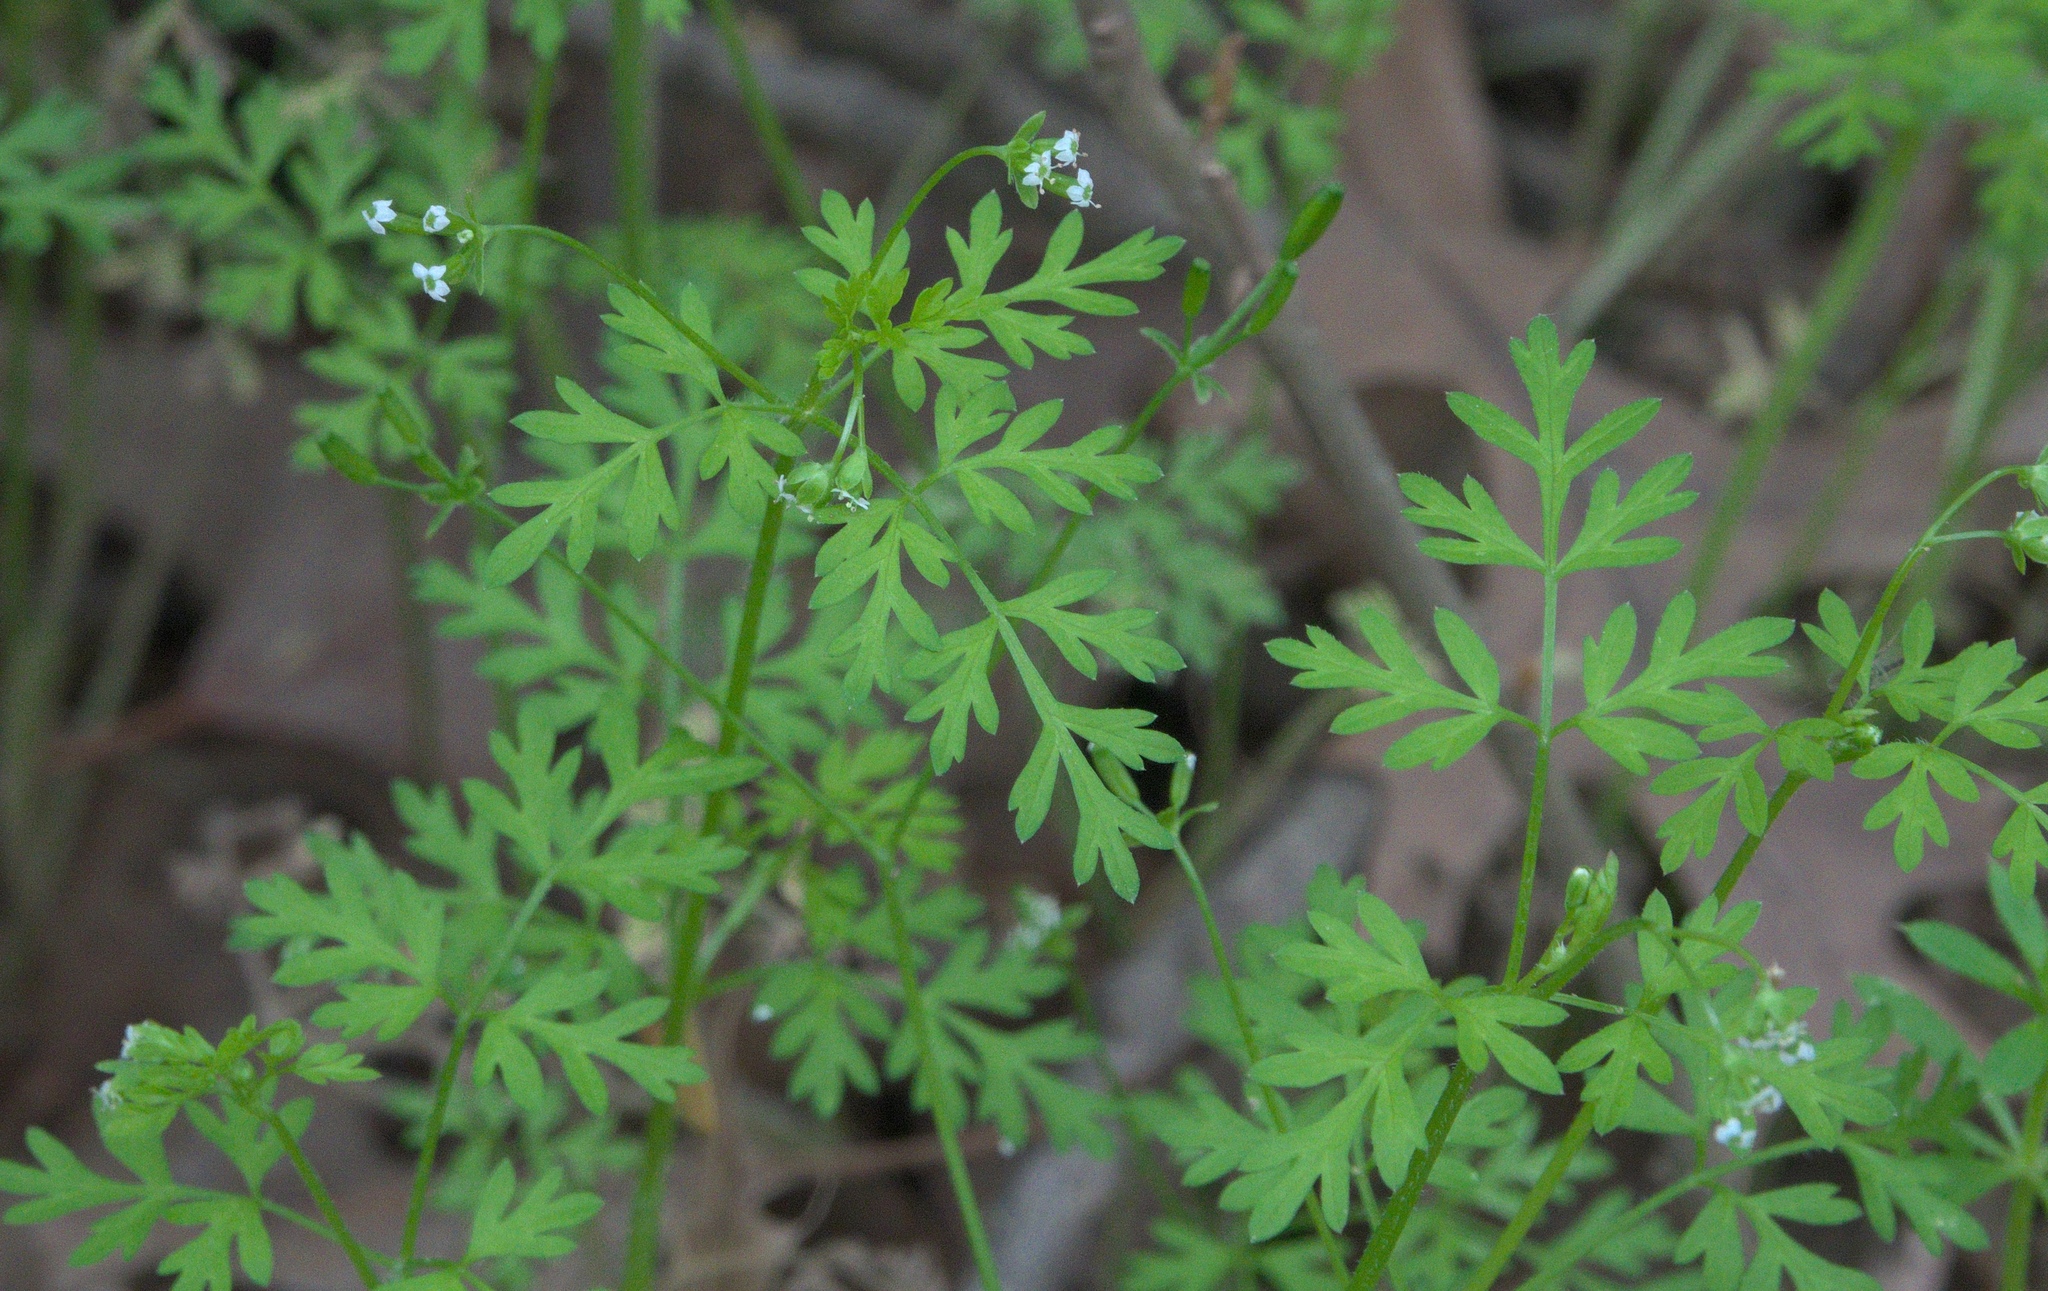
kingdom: Plantae
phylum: Tracheophyta
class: Magnoliopsida
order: Apiales
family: Apiaceae
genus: Chaerophyllum
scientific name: Chaerophyllum tainturieri
